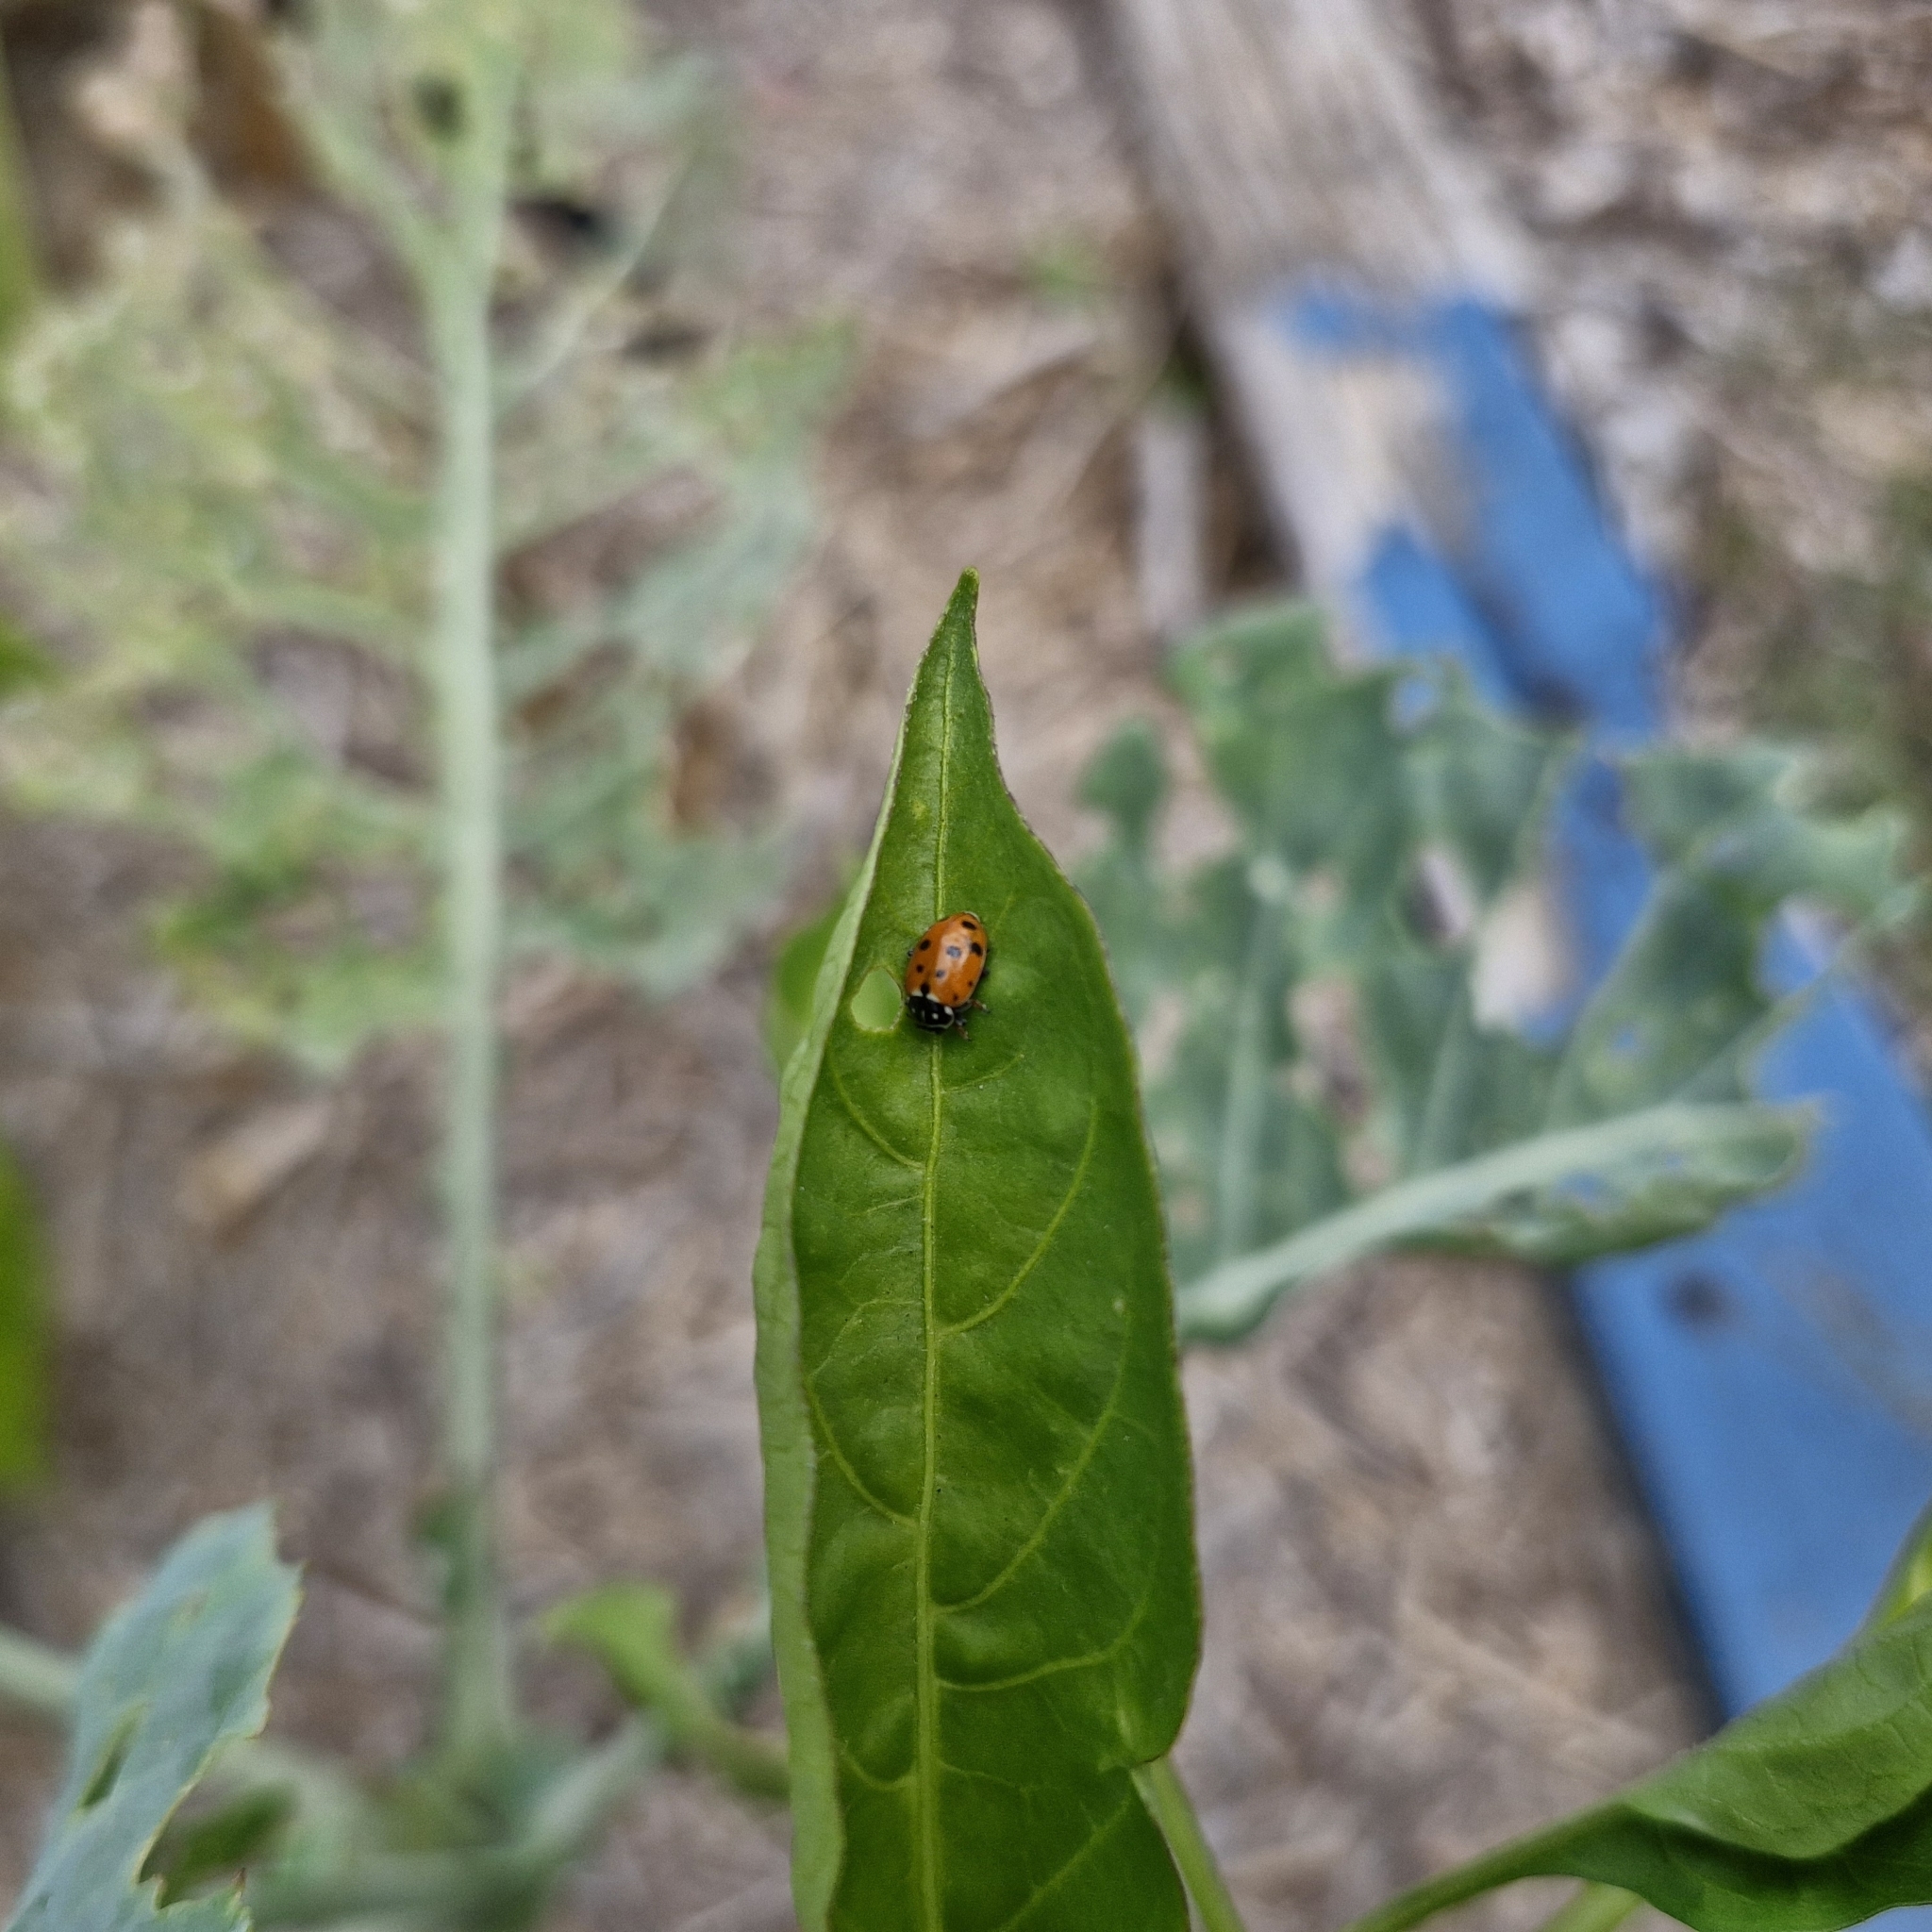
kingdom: Animalia
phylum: Arthropoda
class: Insecta
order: Coleoptera
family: Coccinellidae
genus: Hippodamia
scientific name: Hippodamia variegata
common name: Ladybird beetle
